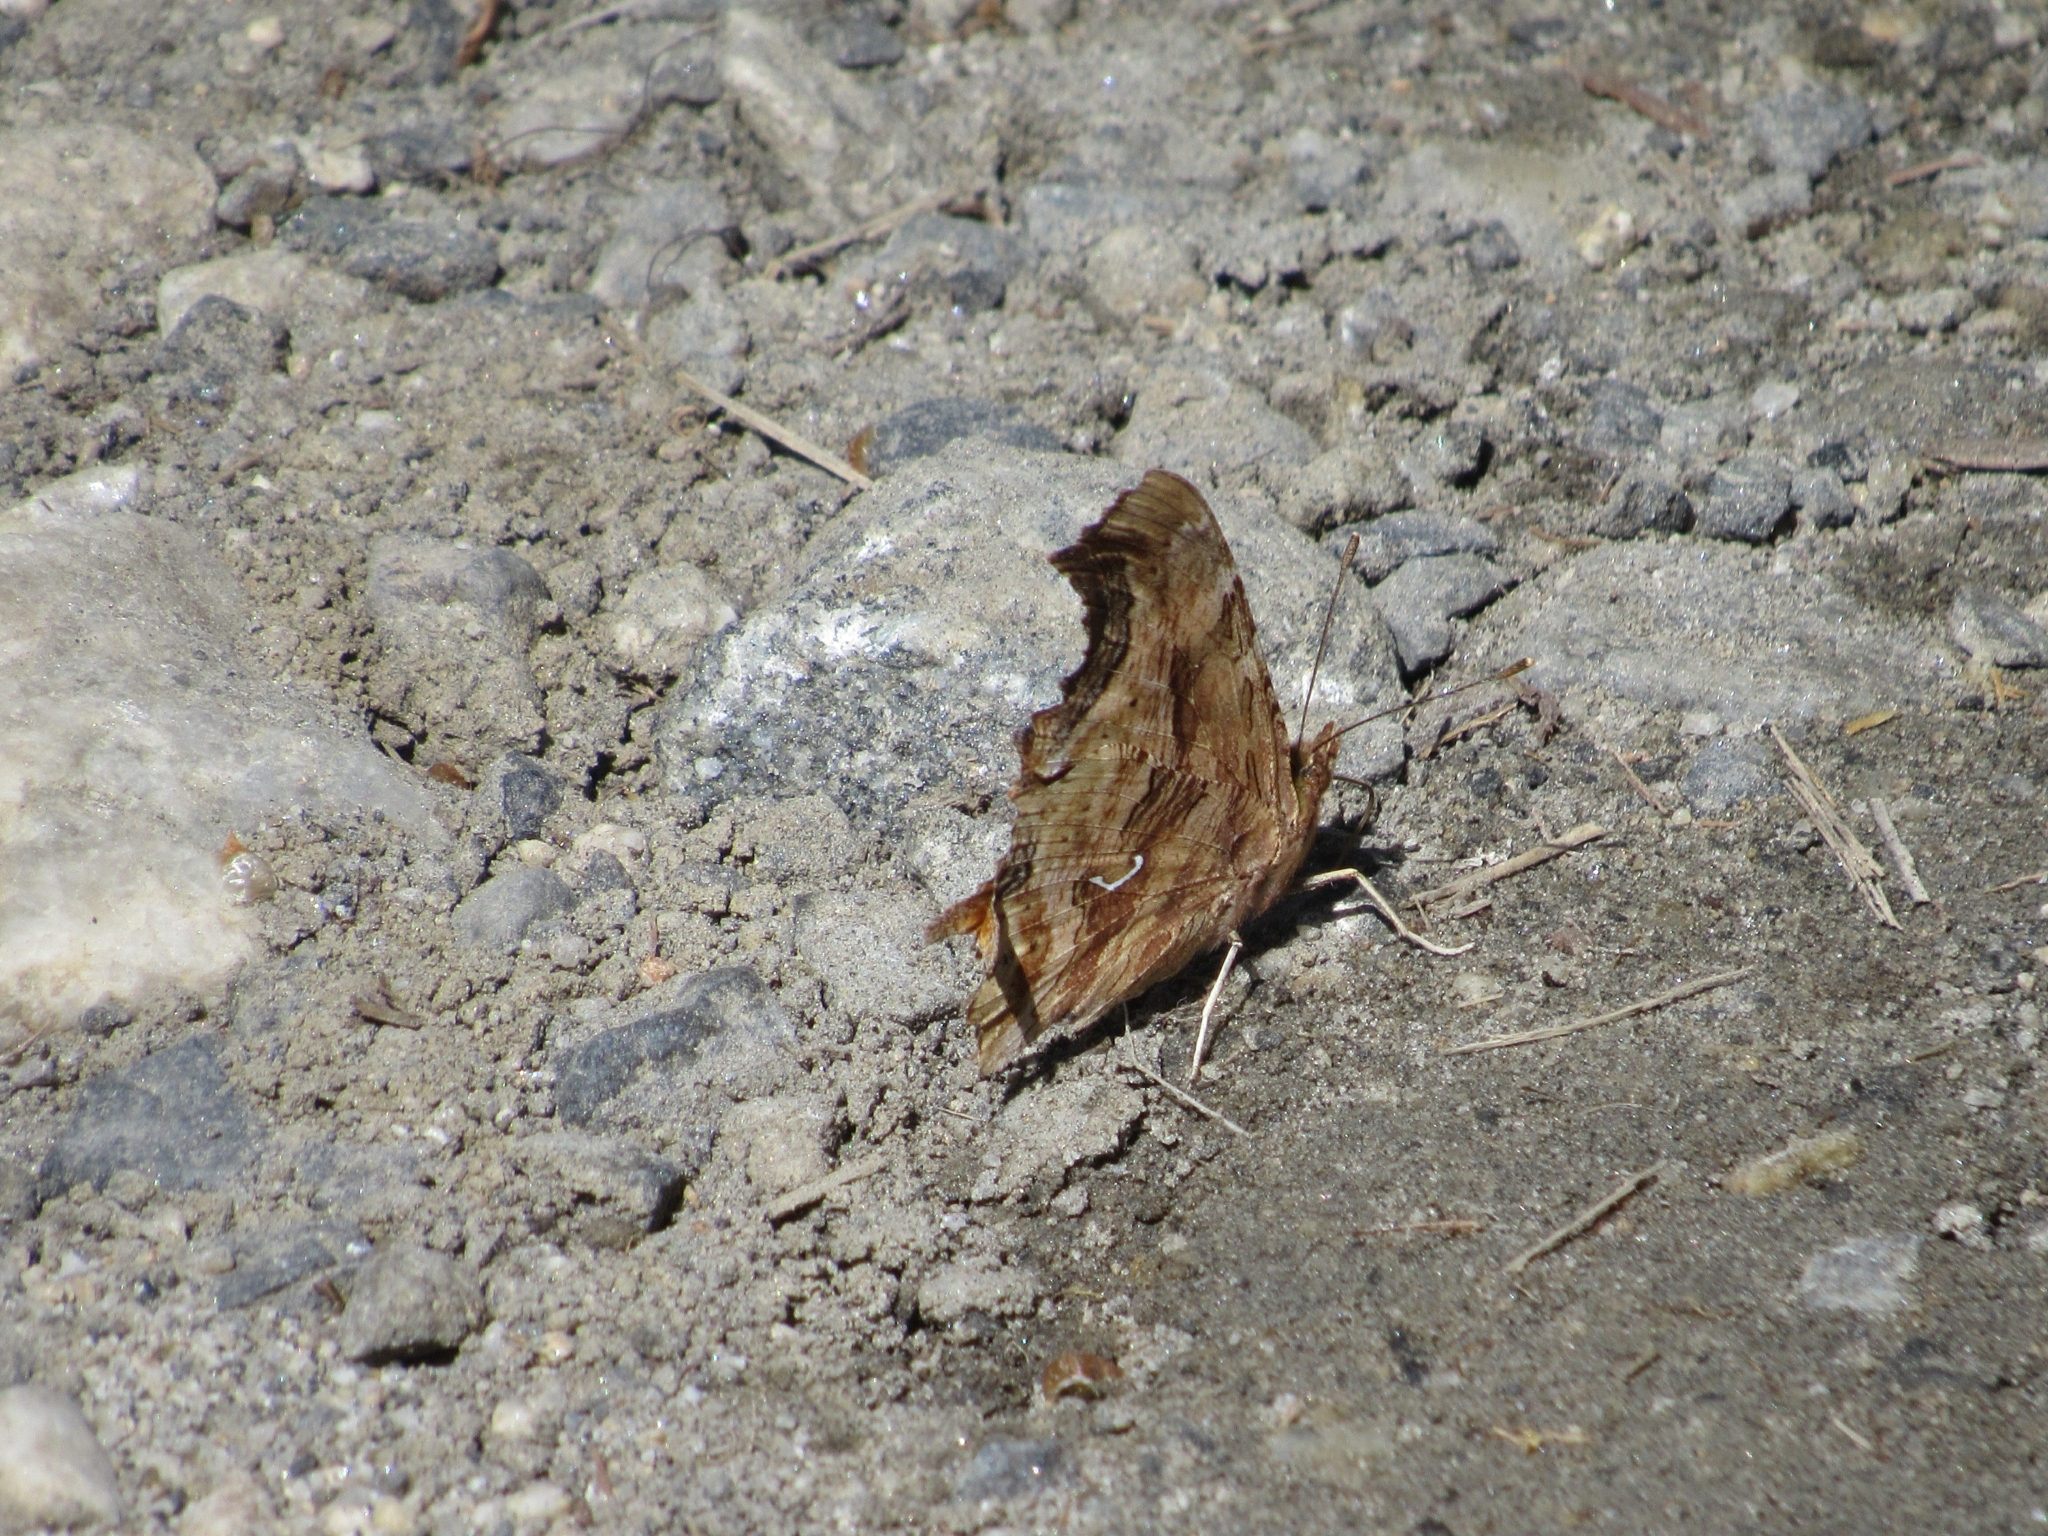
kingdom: Animalia
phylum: Arthropoda
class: Insecta
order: Lepidoptera
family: Nymphalidae
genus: Polygonia
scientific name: Polygonia satyrus
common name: Satyr angle wing
